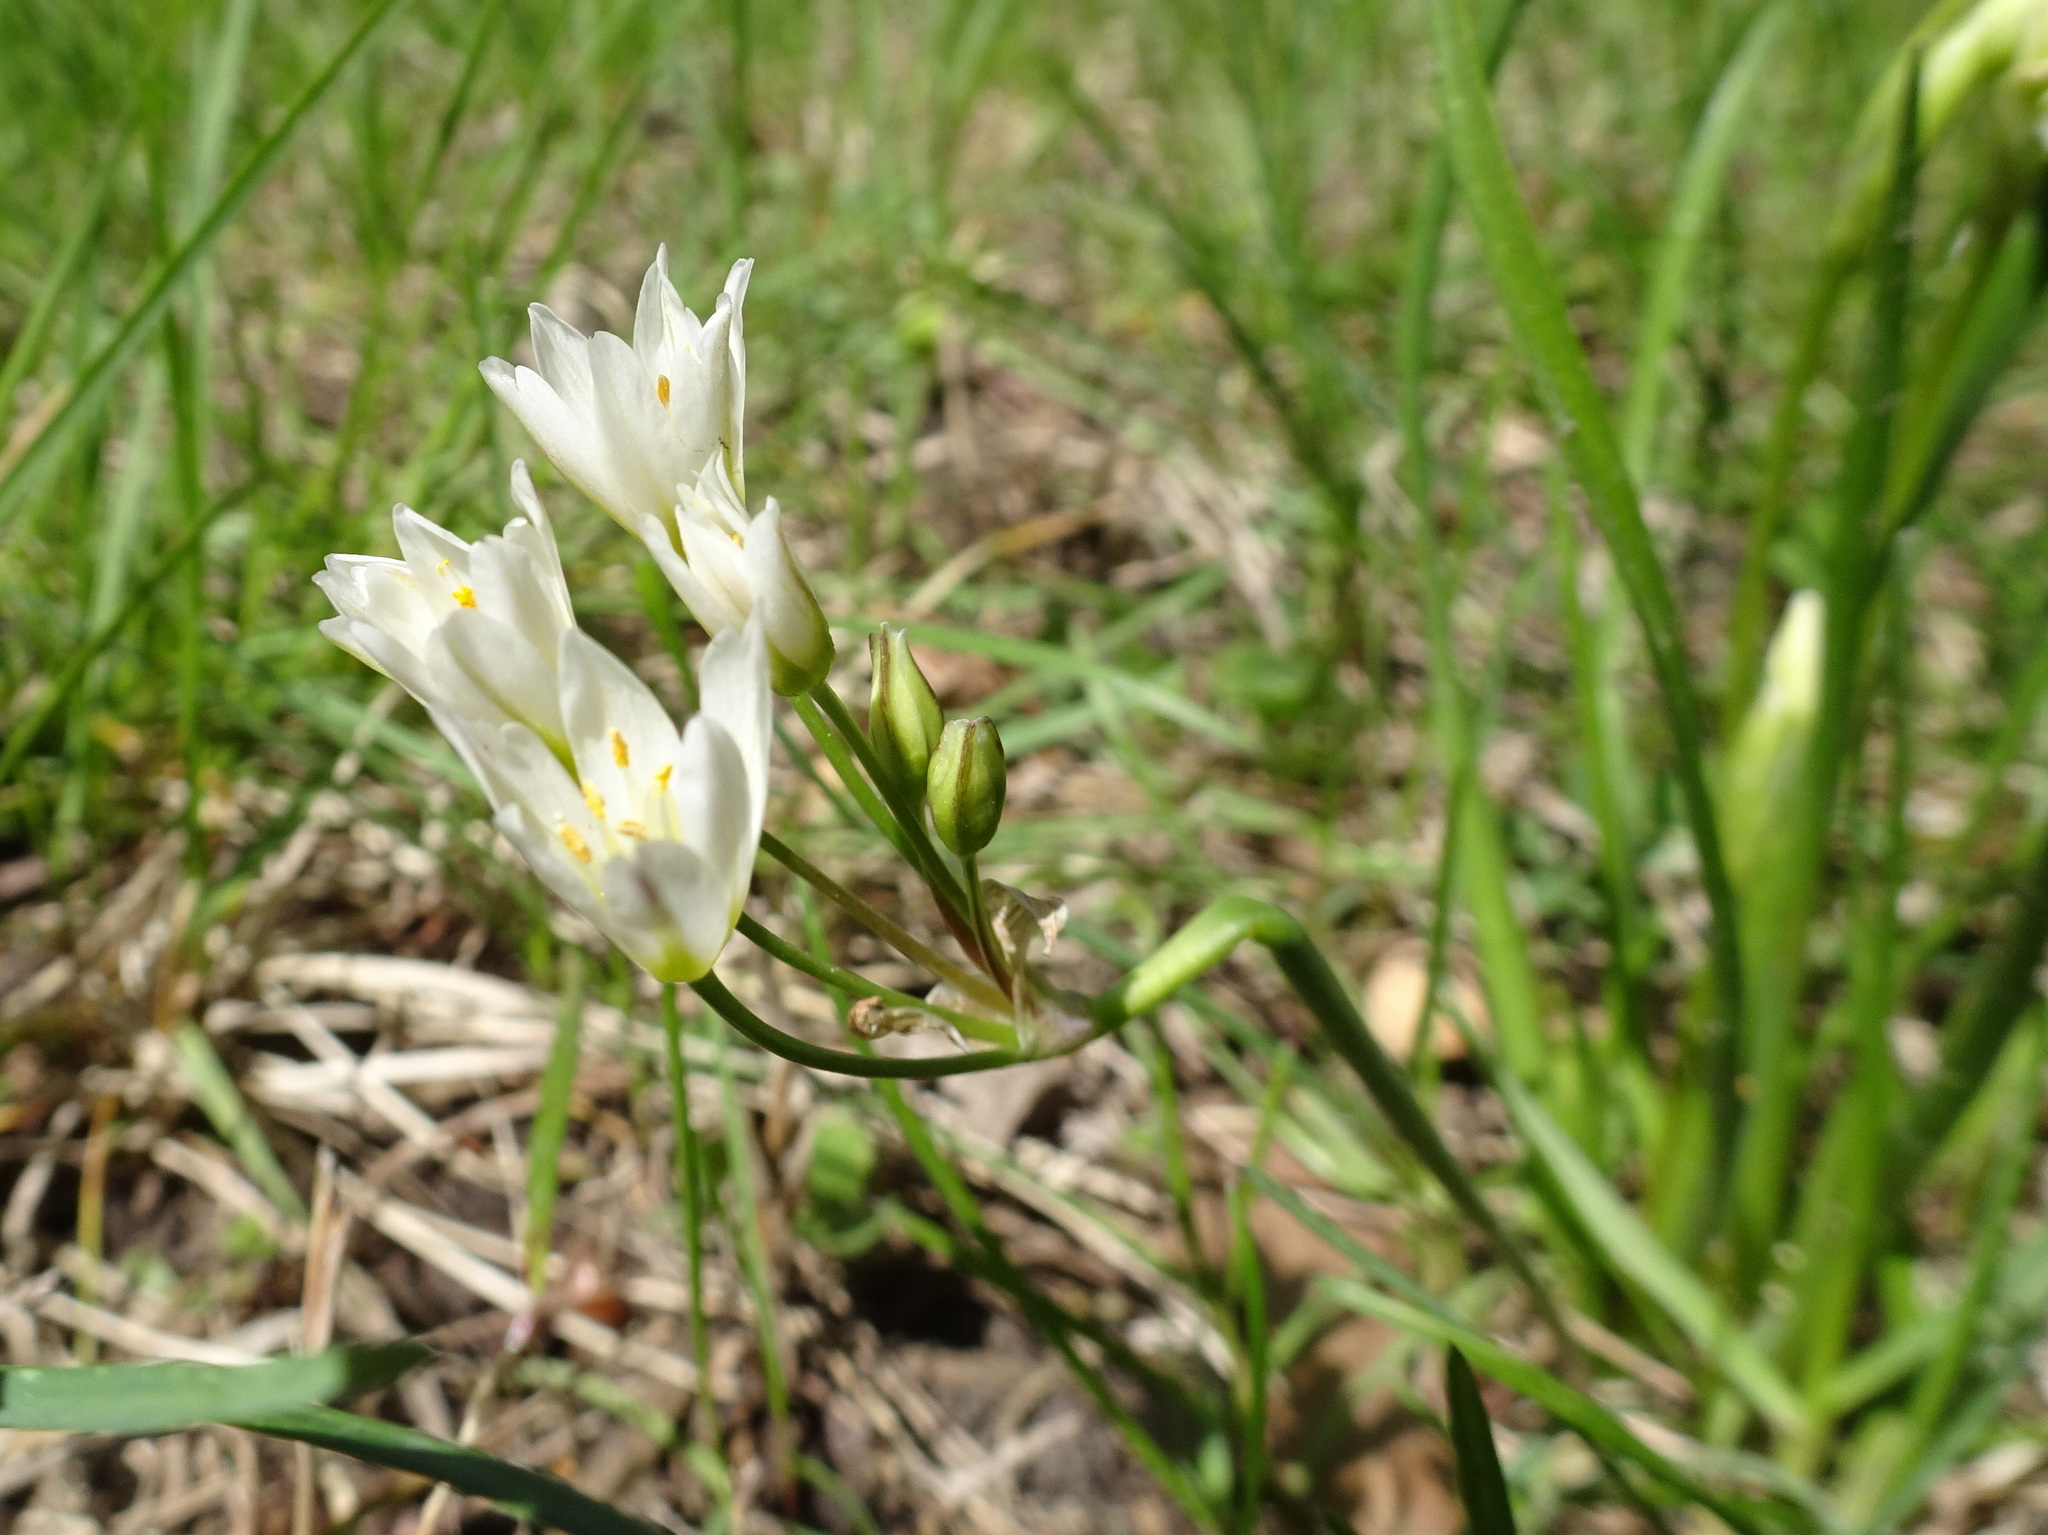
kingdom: Plantae
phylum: Tracheophyta
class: Liliopsida
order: Asparagales
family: Amaryllidaceae
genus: Nothoscordum
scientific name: Nothoscordum bivalve
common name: Crow-poison
